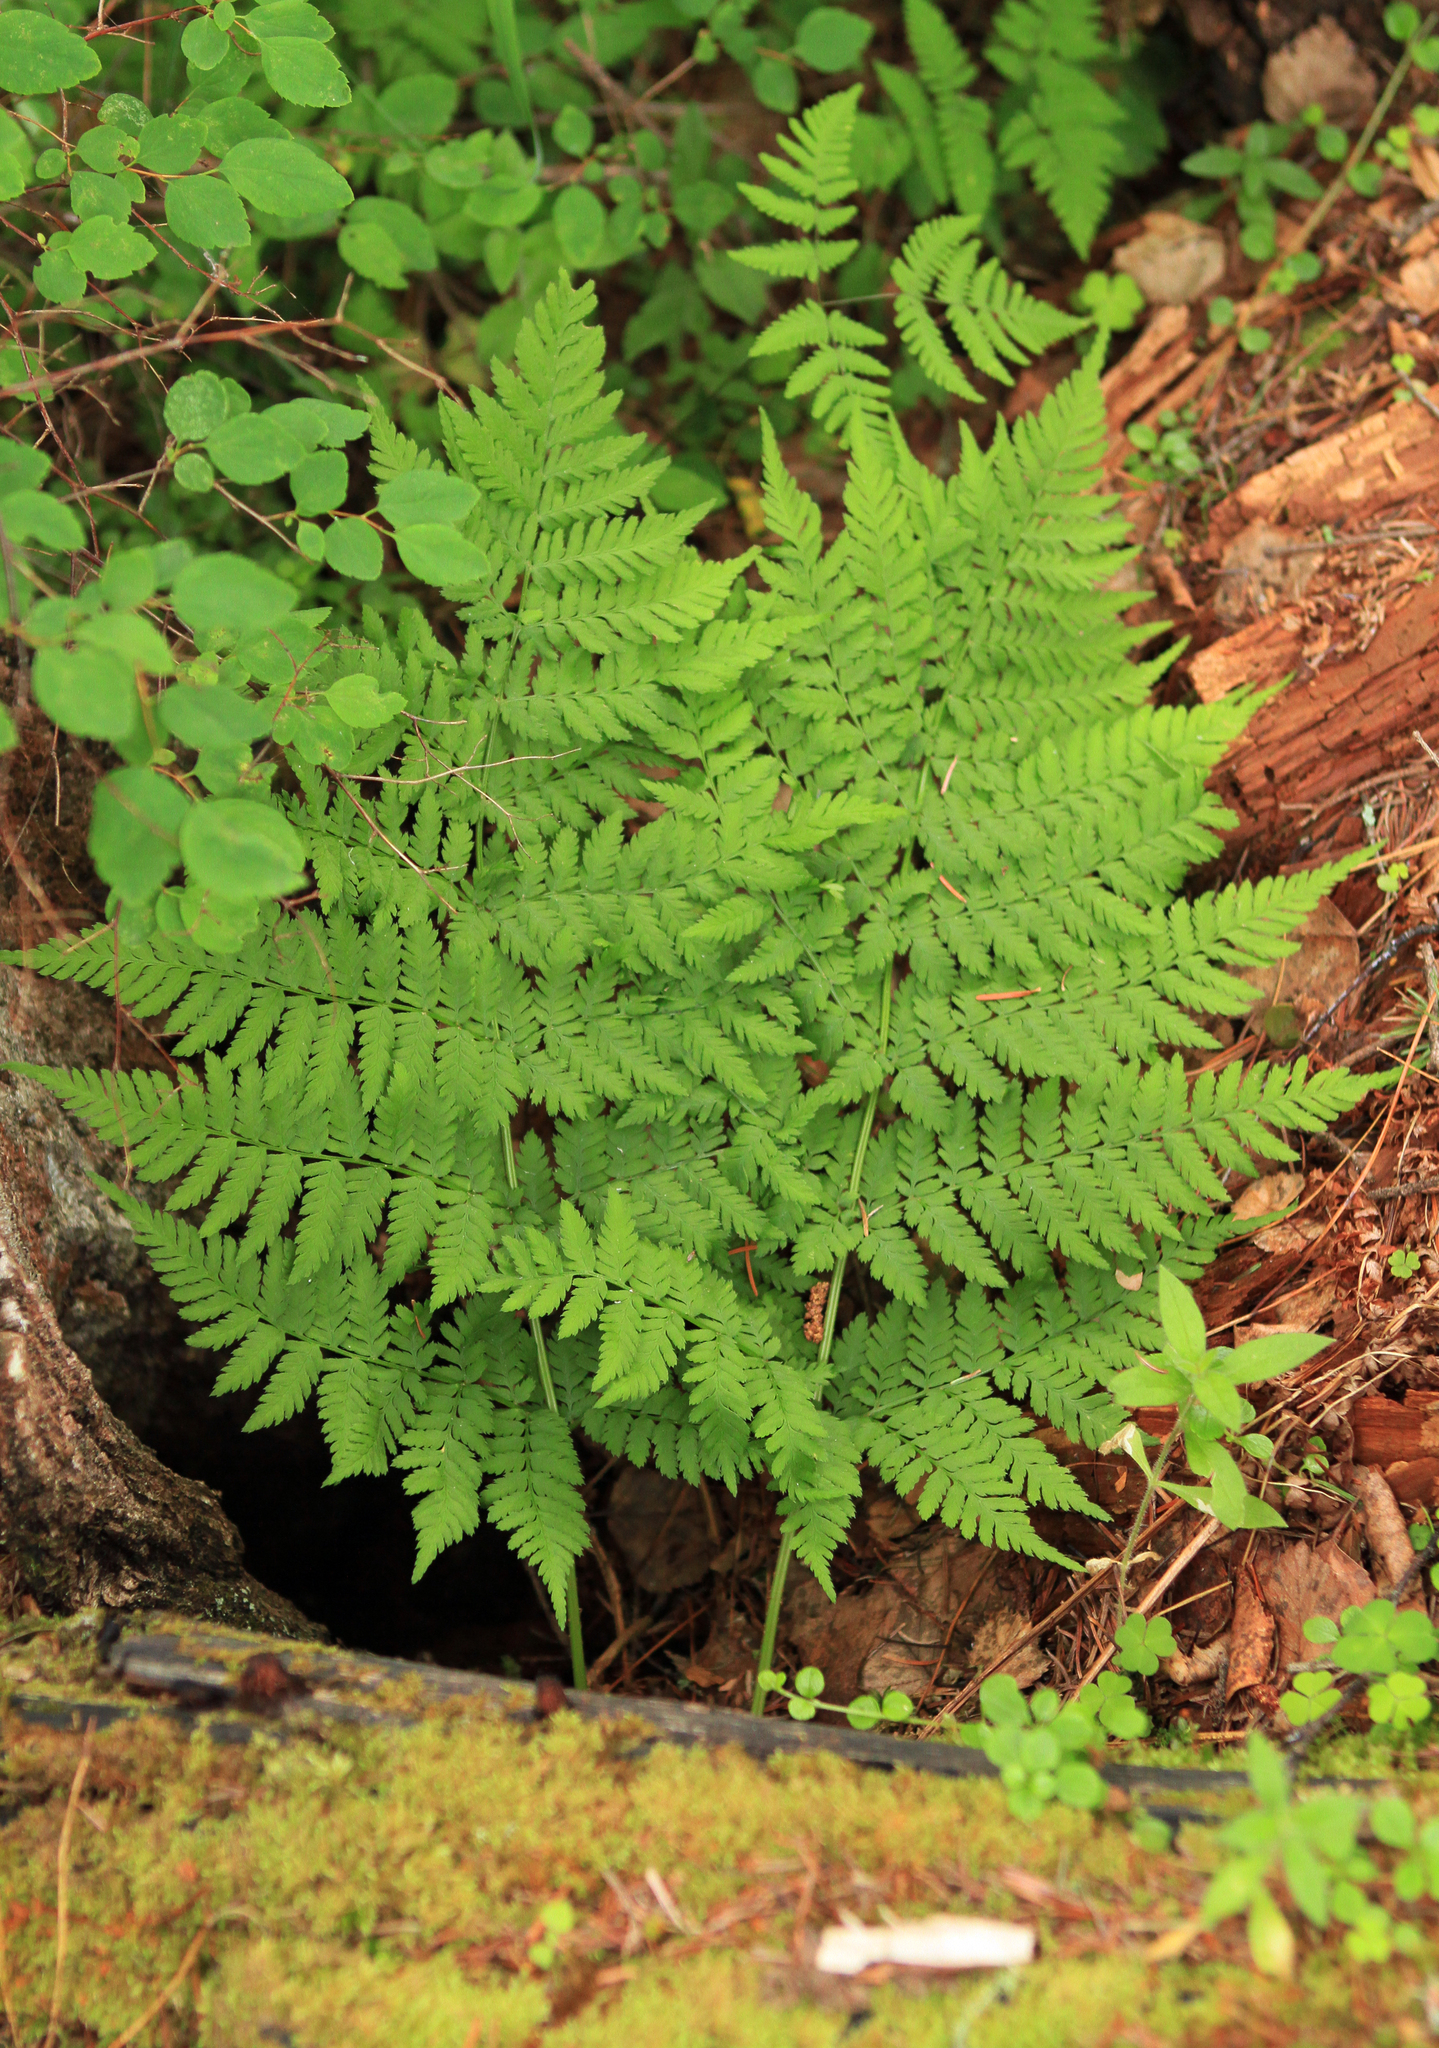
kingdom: Plantae
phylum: Tracheophyta
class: Polypodiopsida
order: Polypodiales
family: Dryopteridaceae
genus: Dryopteris
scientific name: Dryopteris expansa
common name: Northern buckler fern
